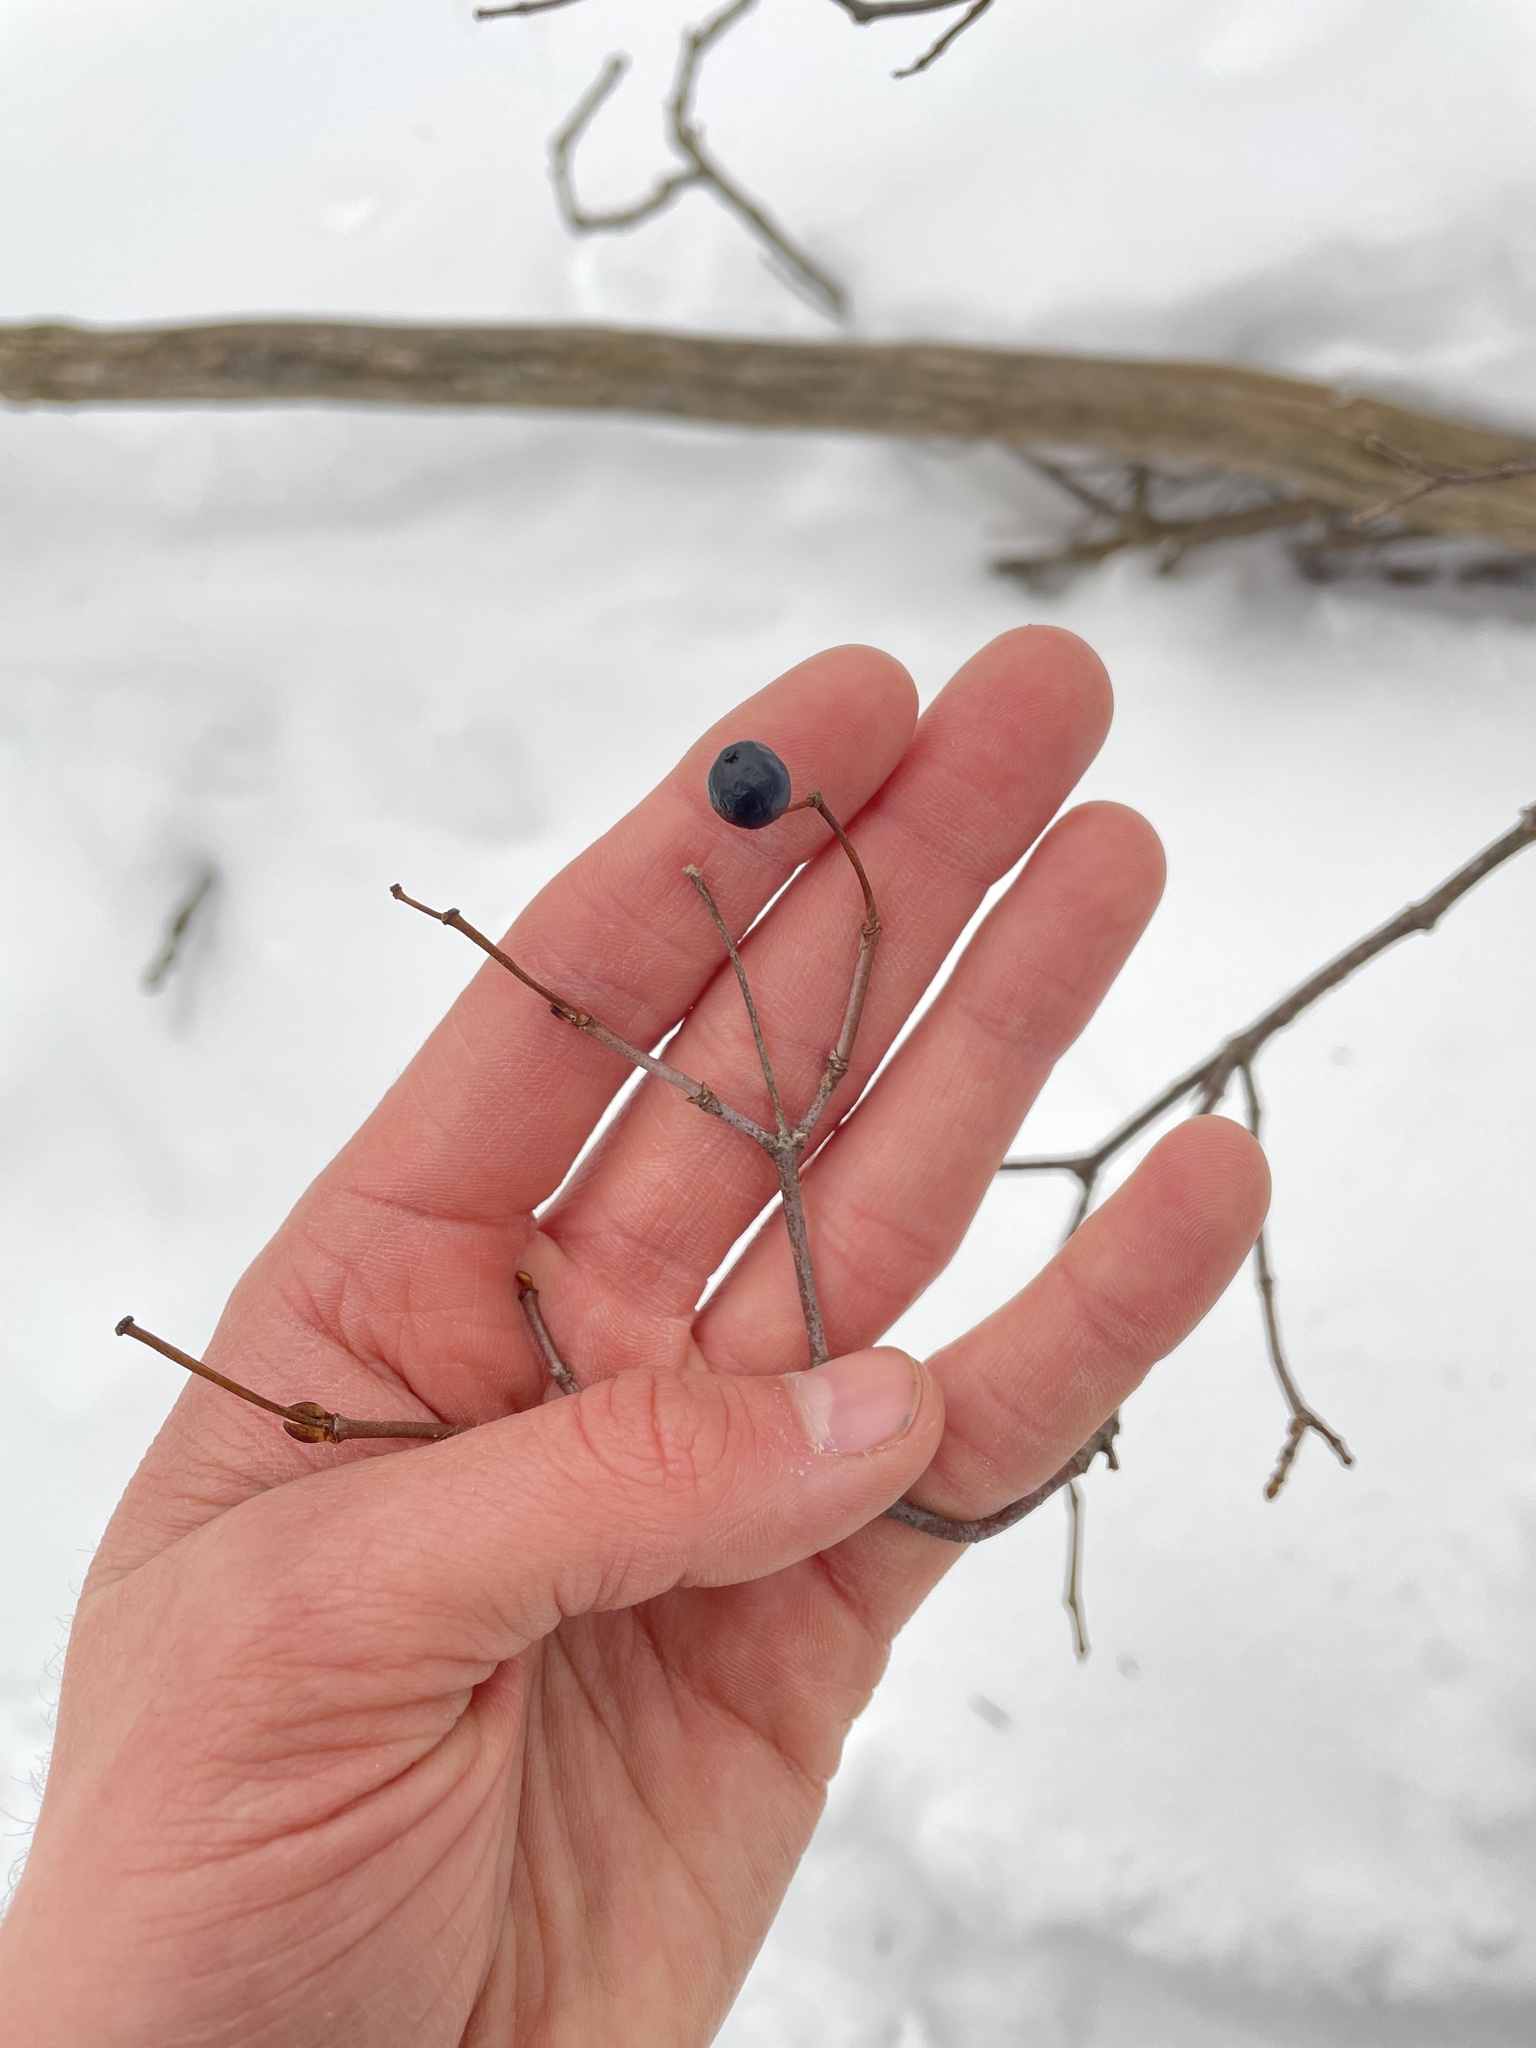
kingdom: Plantae
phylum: Tracheophyta
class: Magnoliopsida
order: Dipsacales
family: Viburnaceae
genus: Viburnum
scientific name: Viburnum acerifolium
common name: Dockmackie
